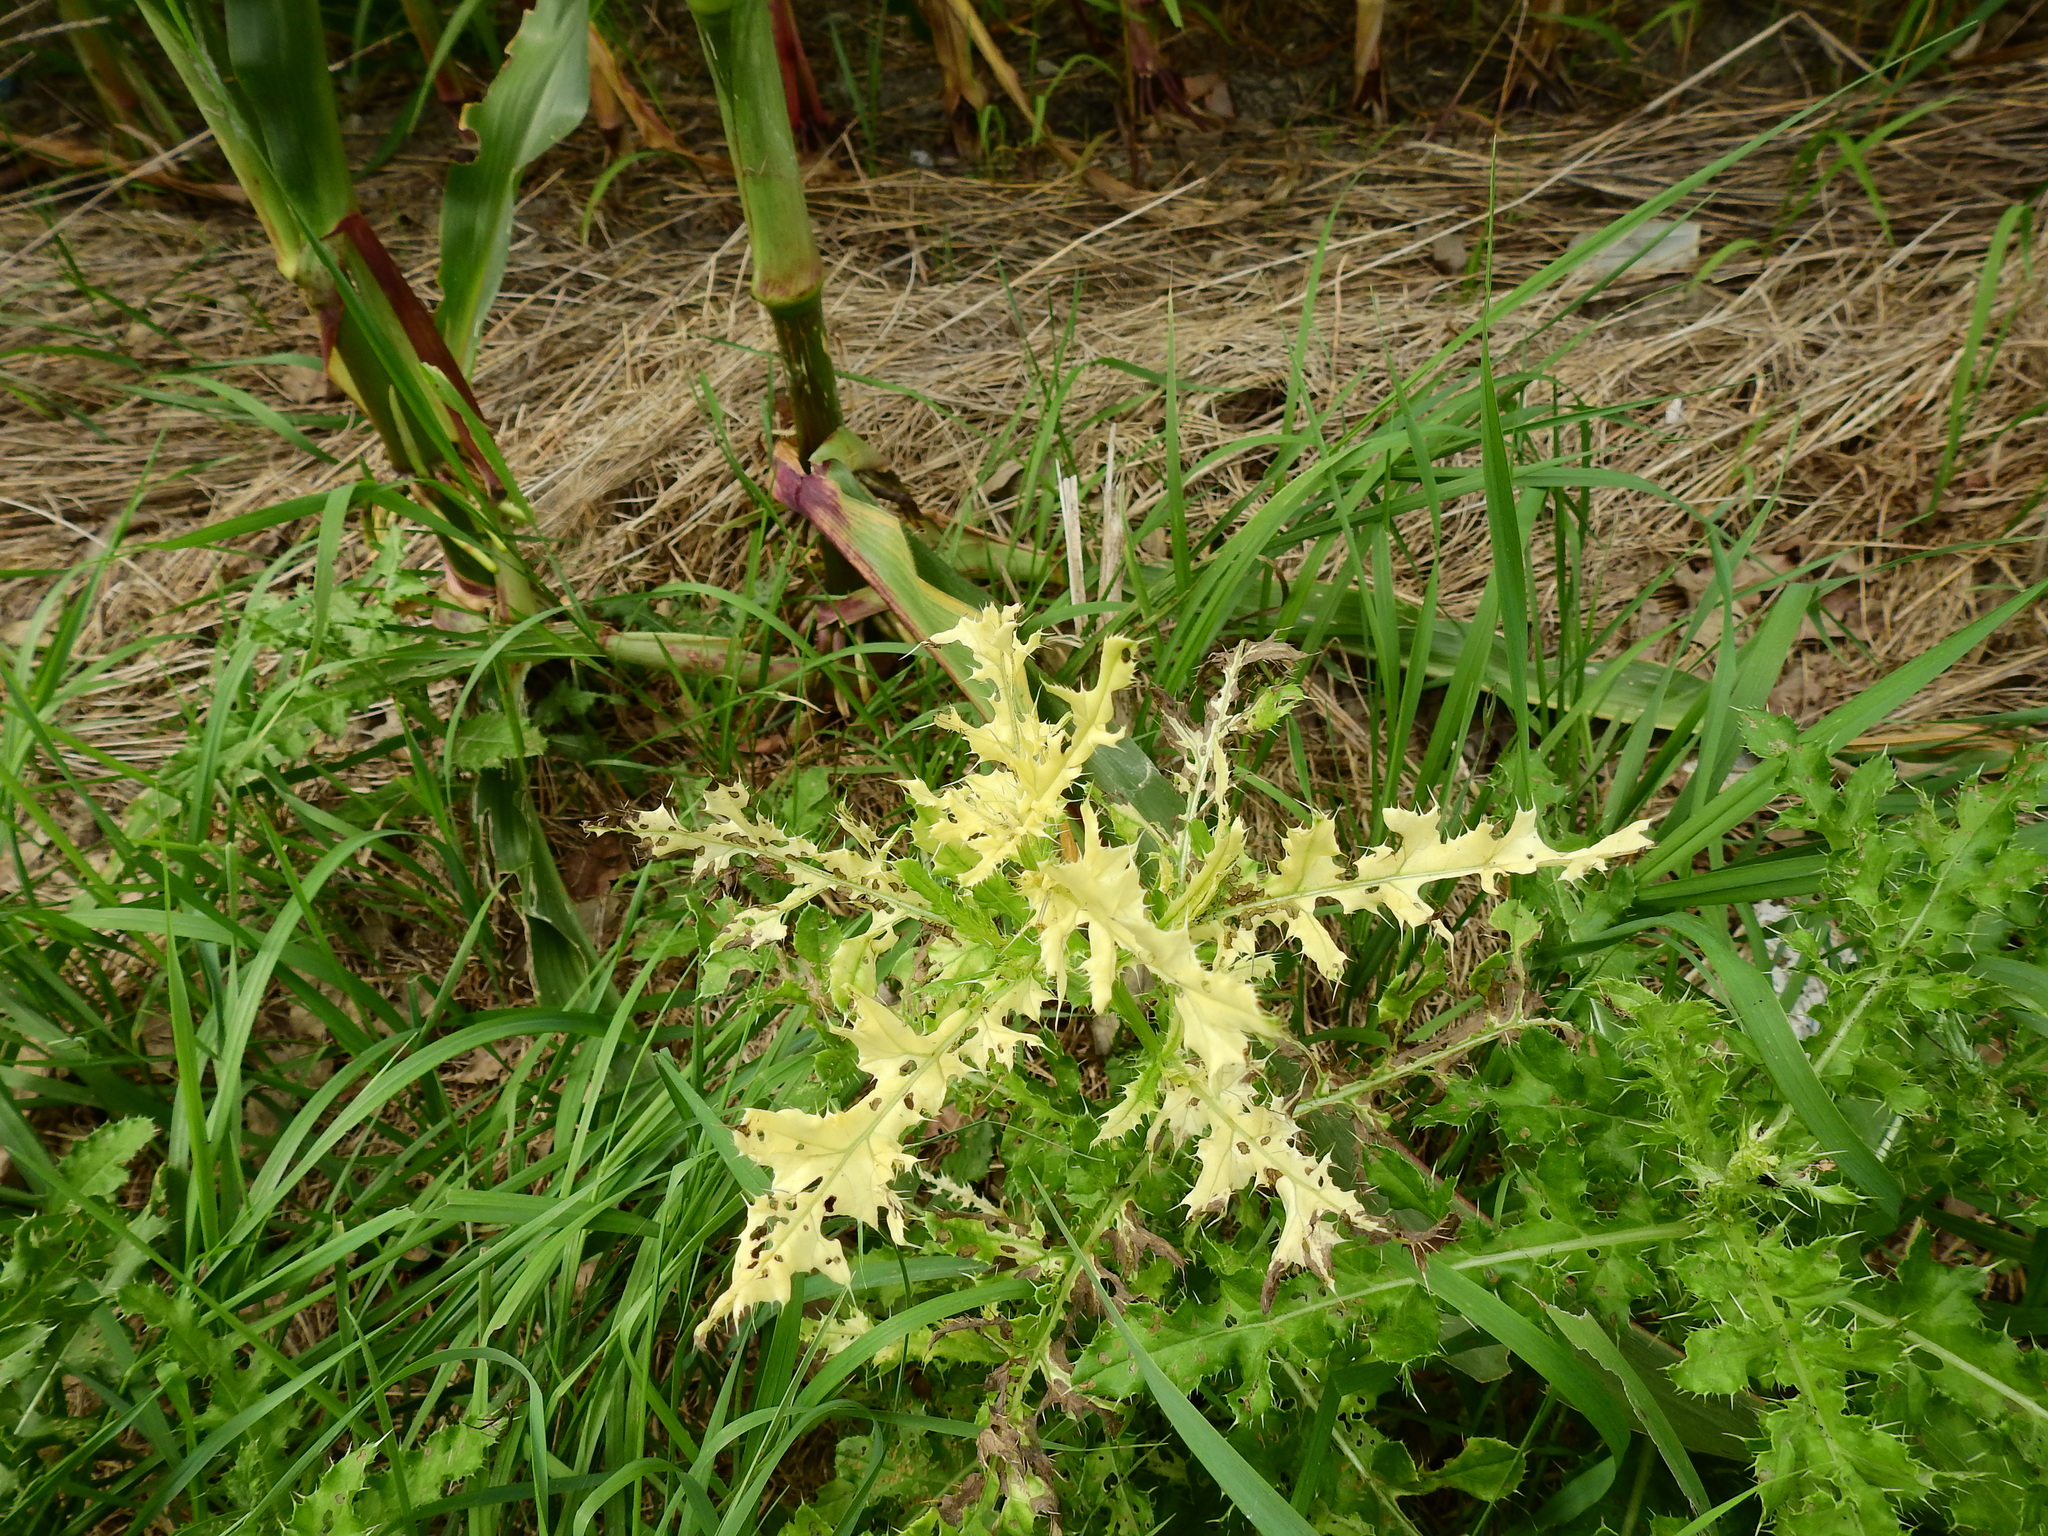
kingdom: Bacteria
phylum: Proteobacteria
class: Gammaproteobacteria
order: Pseudomonadales
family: Pseudomonadaceae
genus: Pseudomonas
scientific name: Pseudomonas syringae
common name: Bacterial speck
